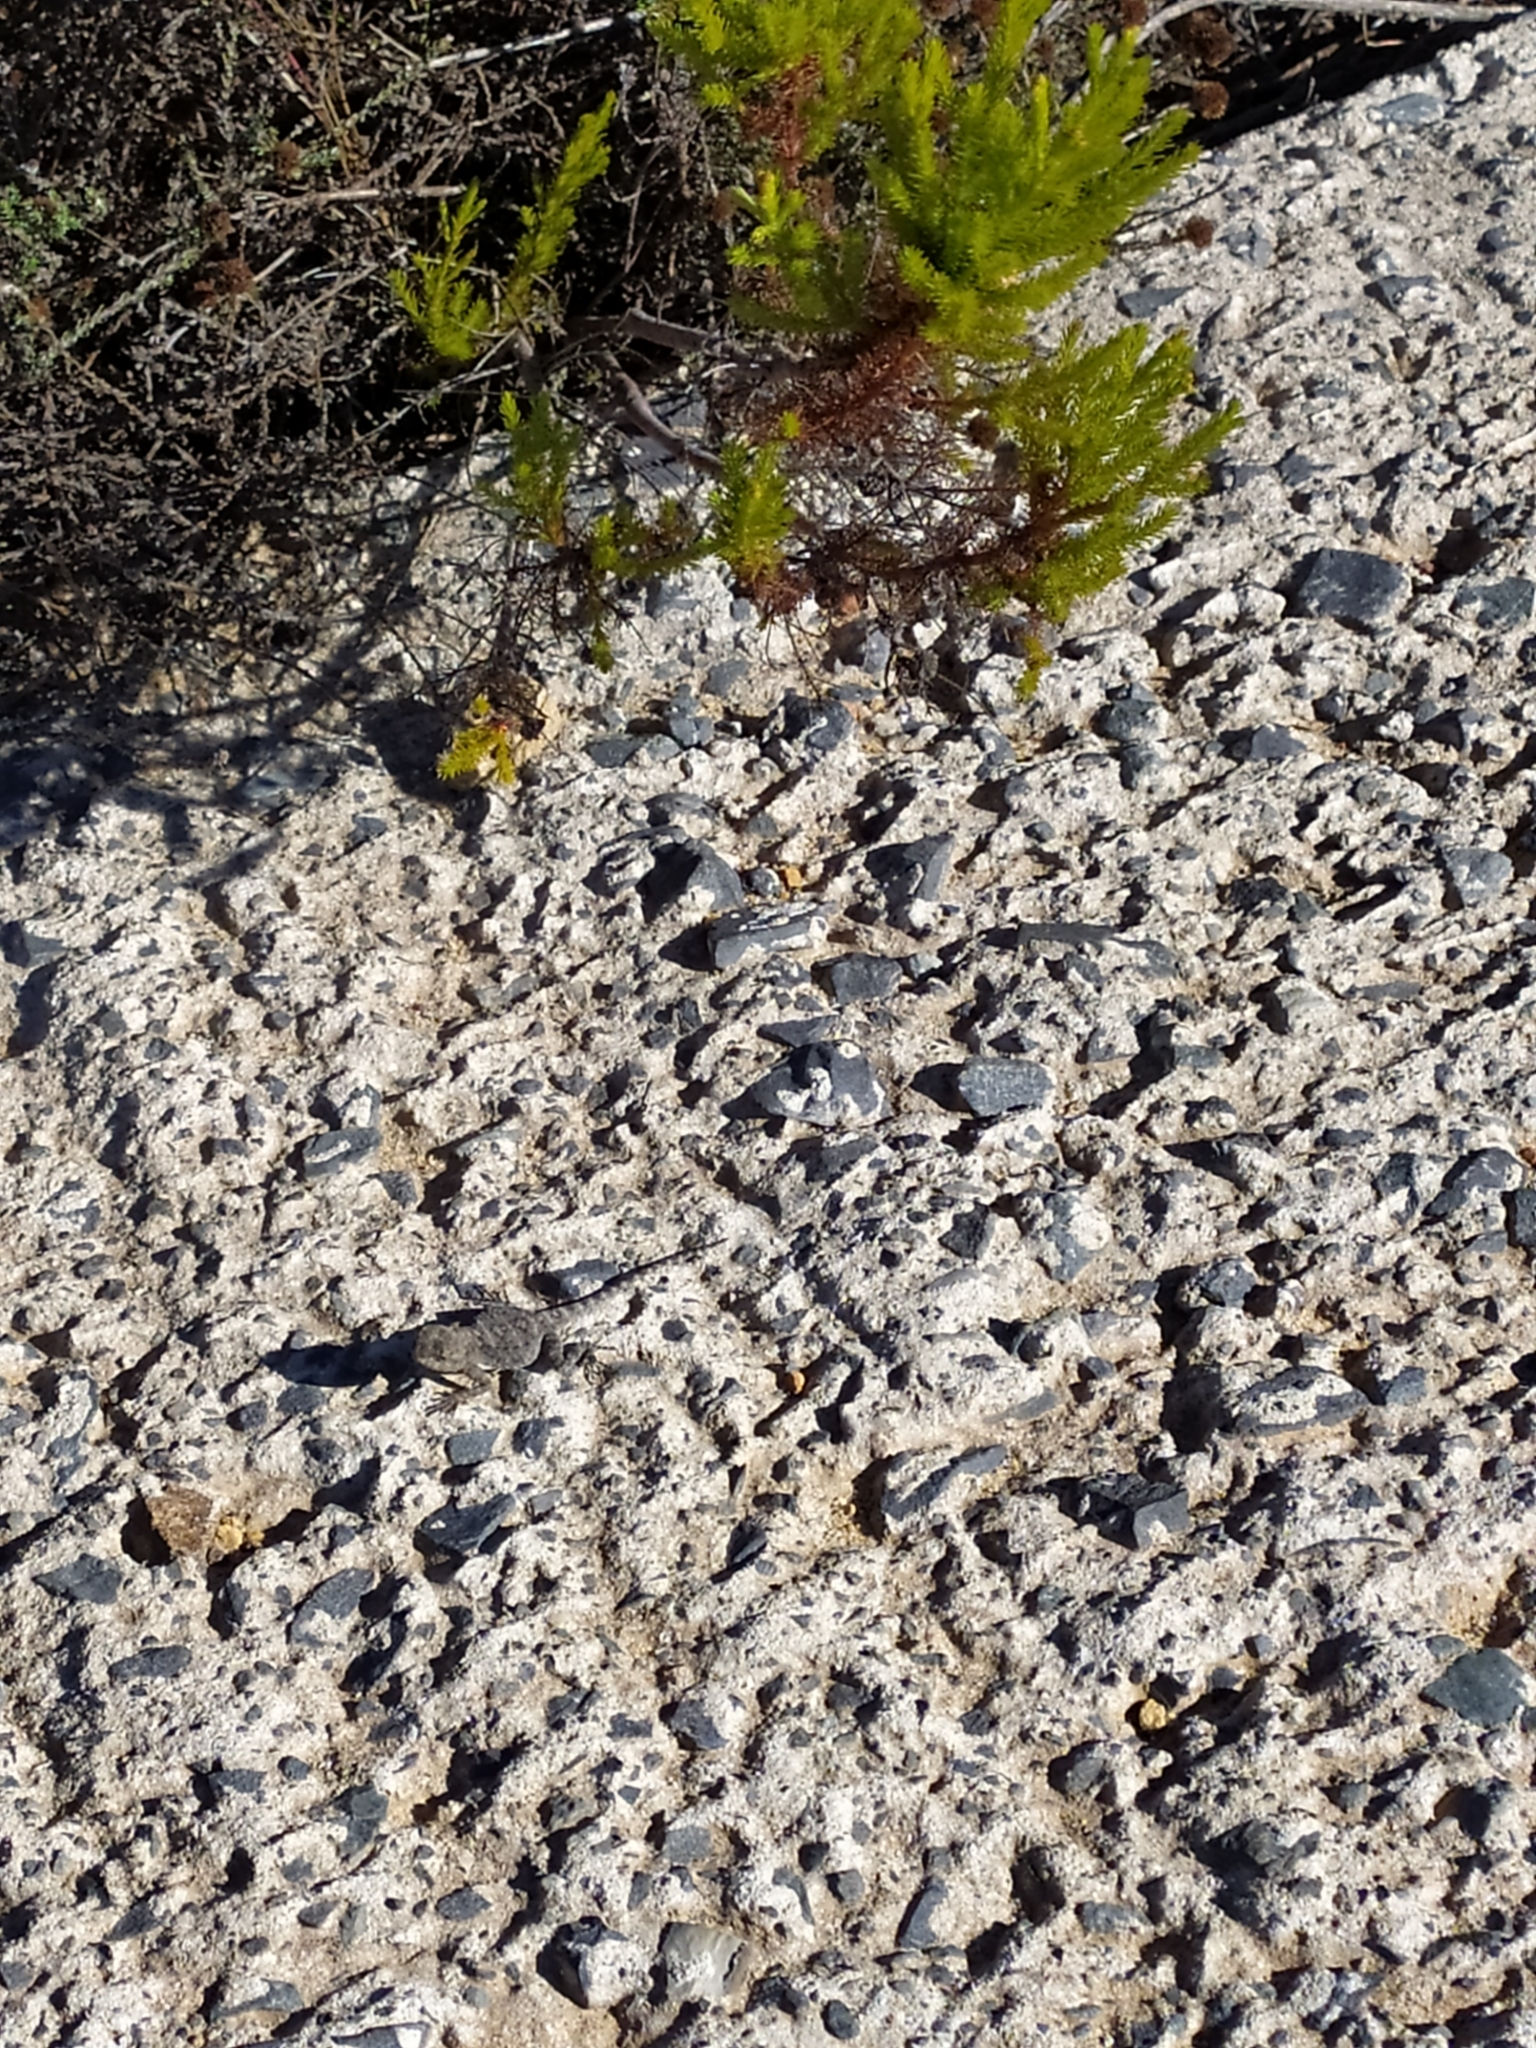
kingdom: Animalia
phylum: Chordata
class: Squamata
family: Agamidae
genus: Agama
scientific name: Agama atra
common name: Southern african rock agama
